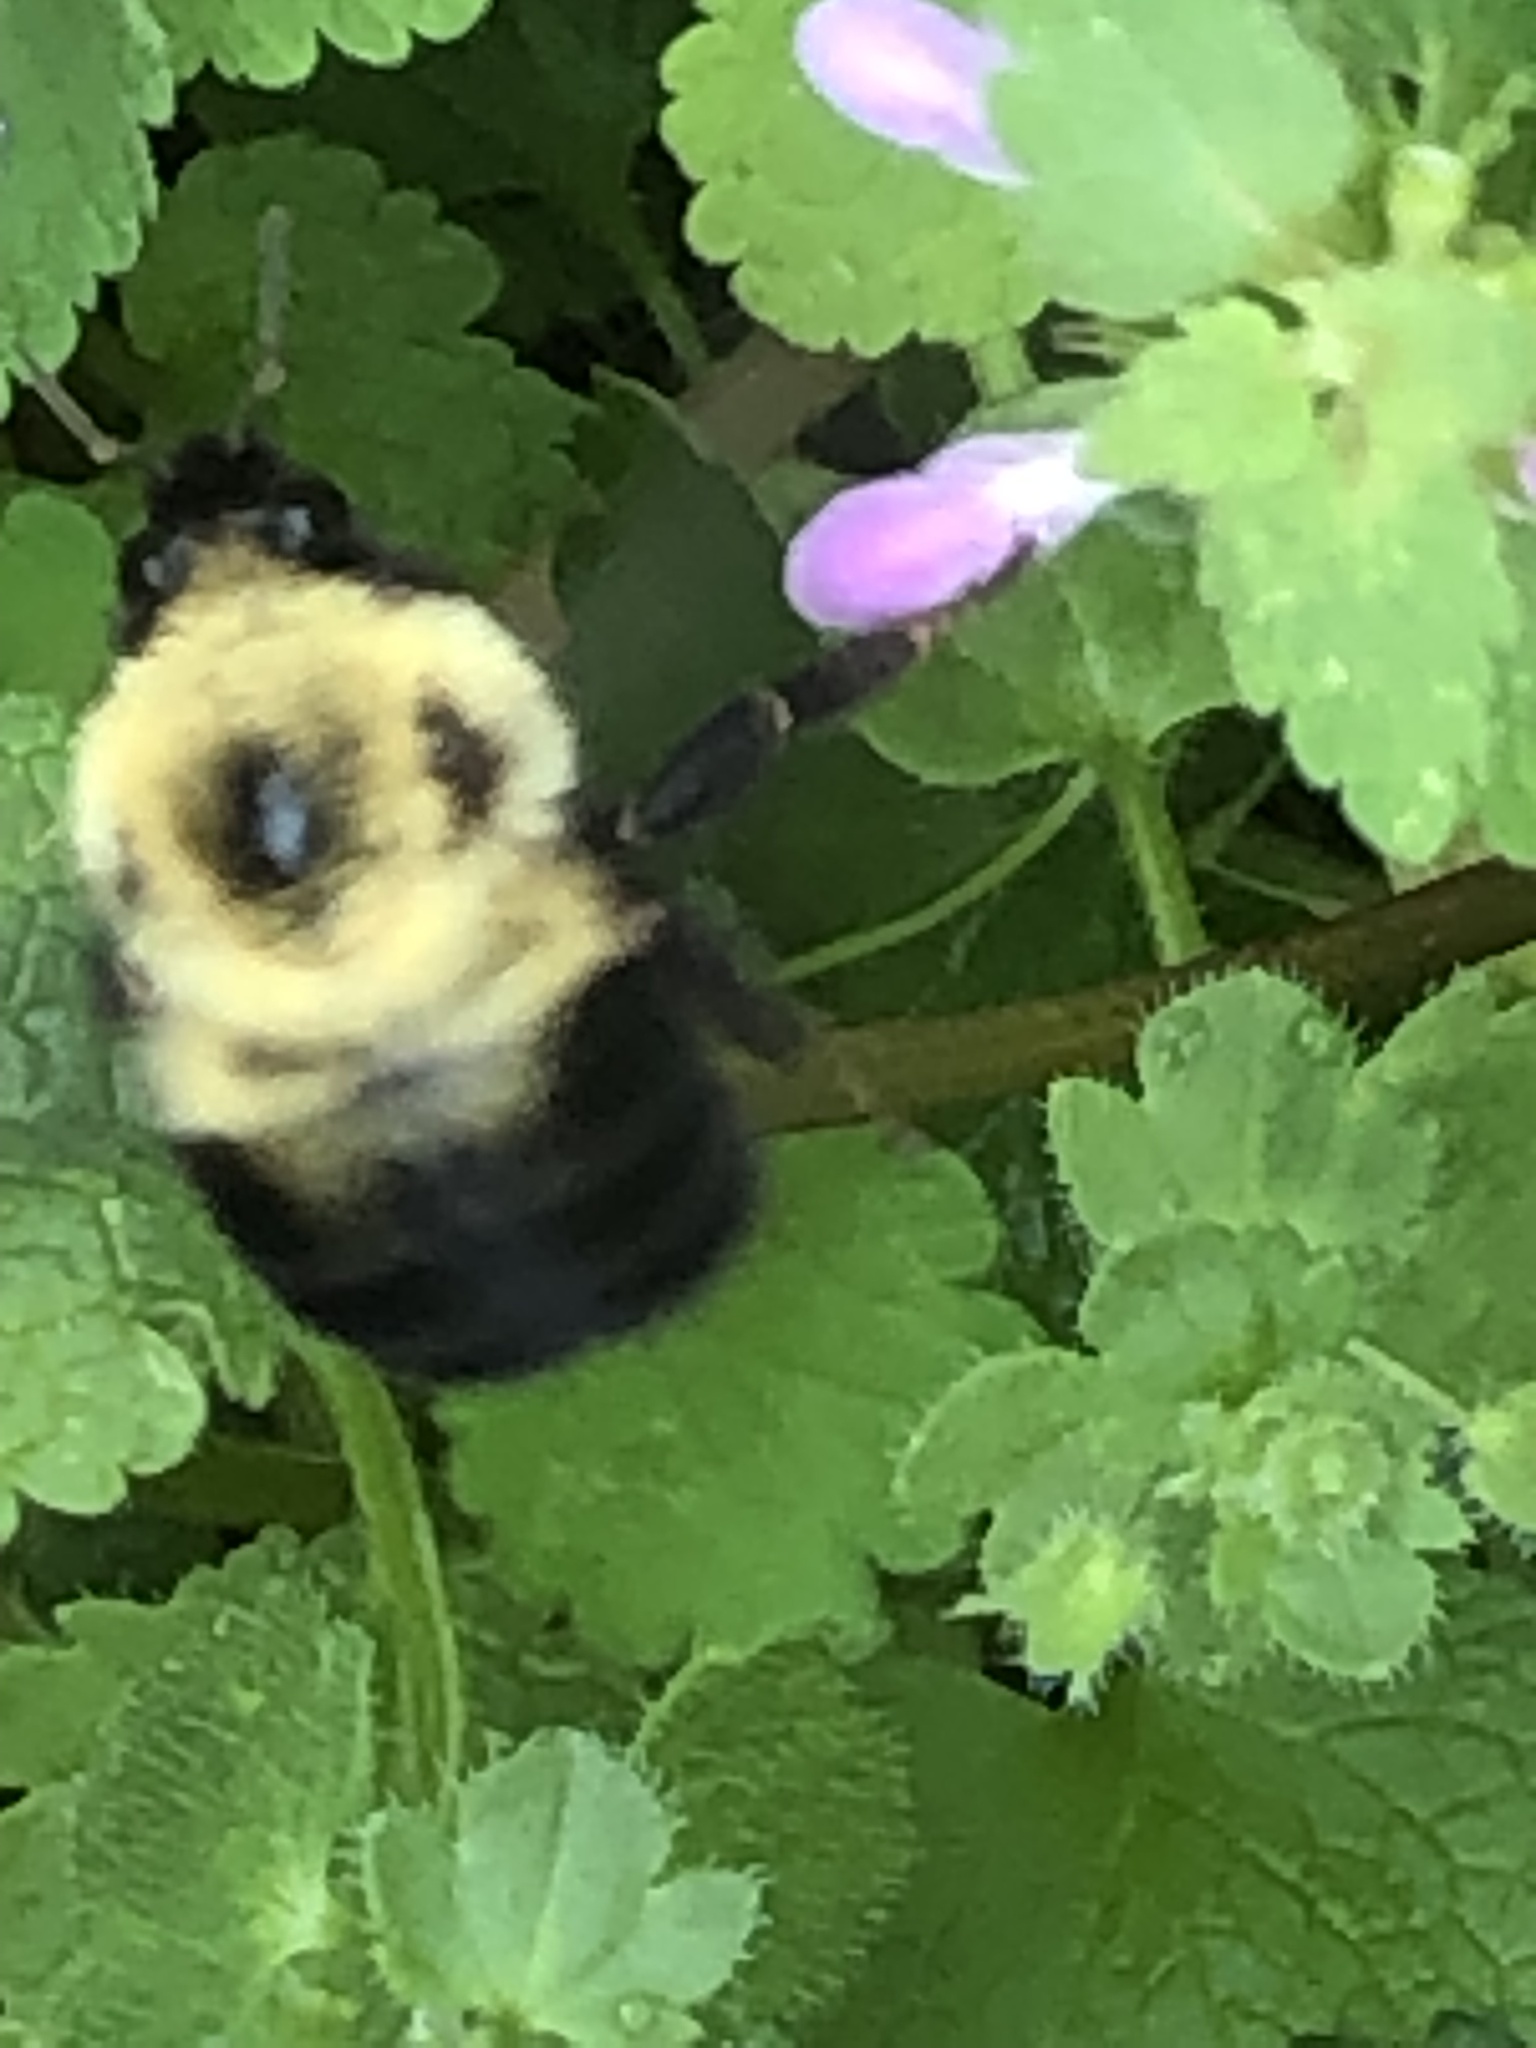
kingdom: Animalia
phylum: Arthropoda
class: Insecta
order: Hymenoptera
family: Apidae
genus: Bombus
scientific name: Bombus bimaculatus
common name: Two-spotted bumble bee
